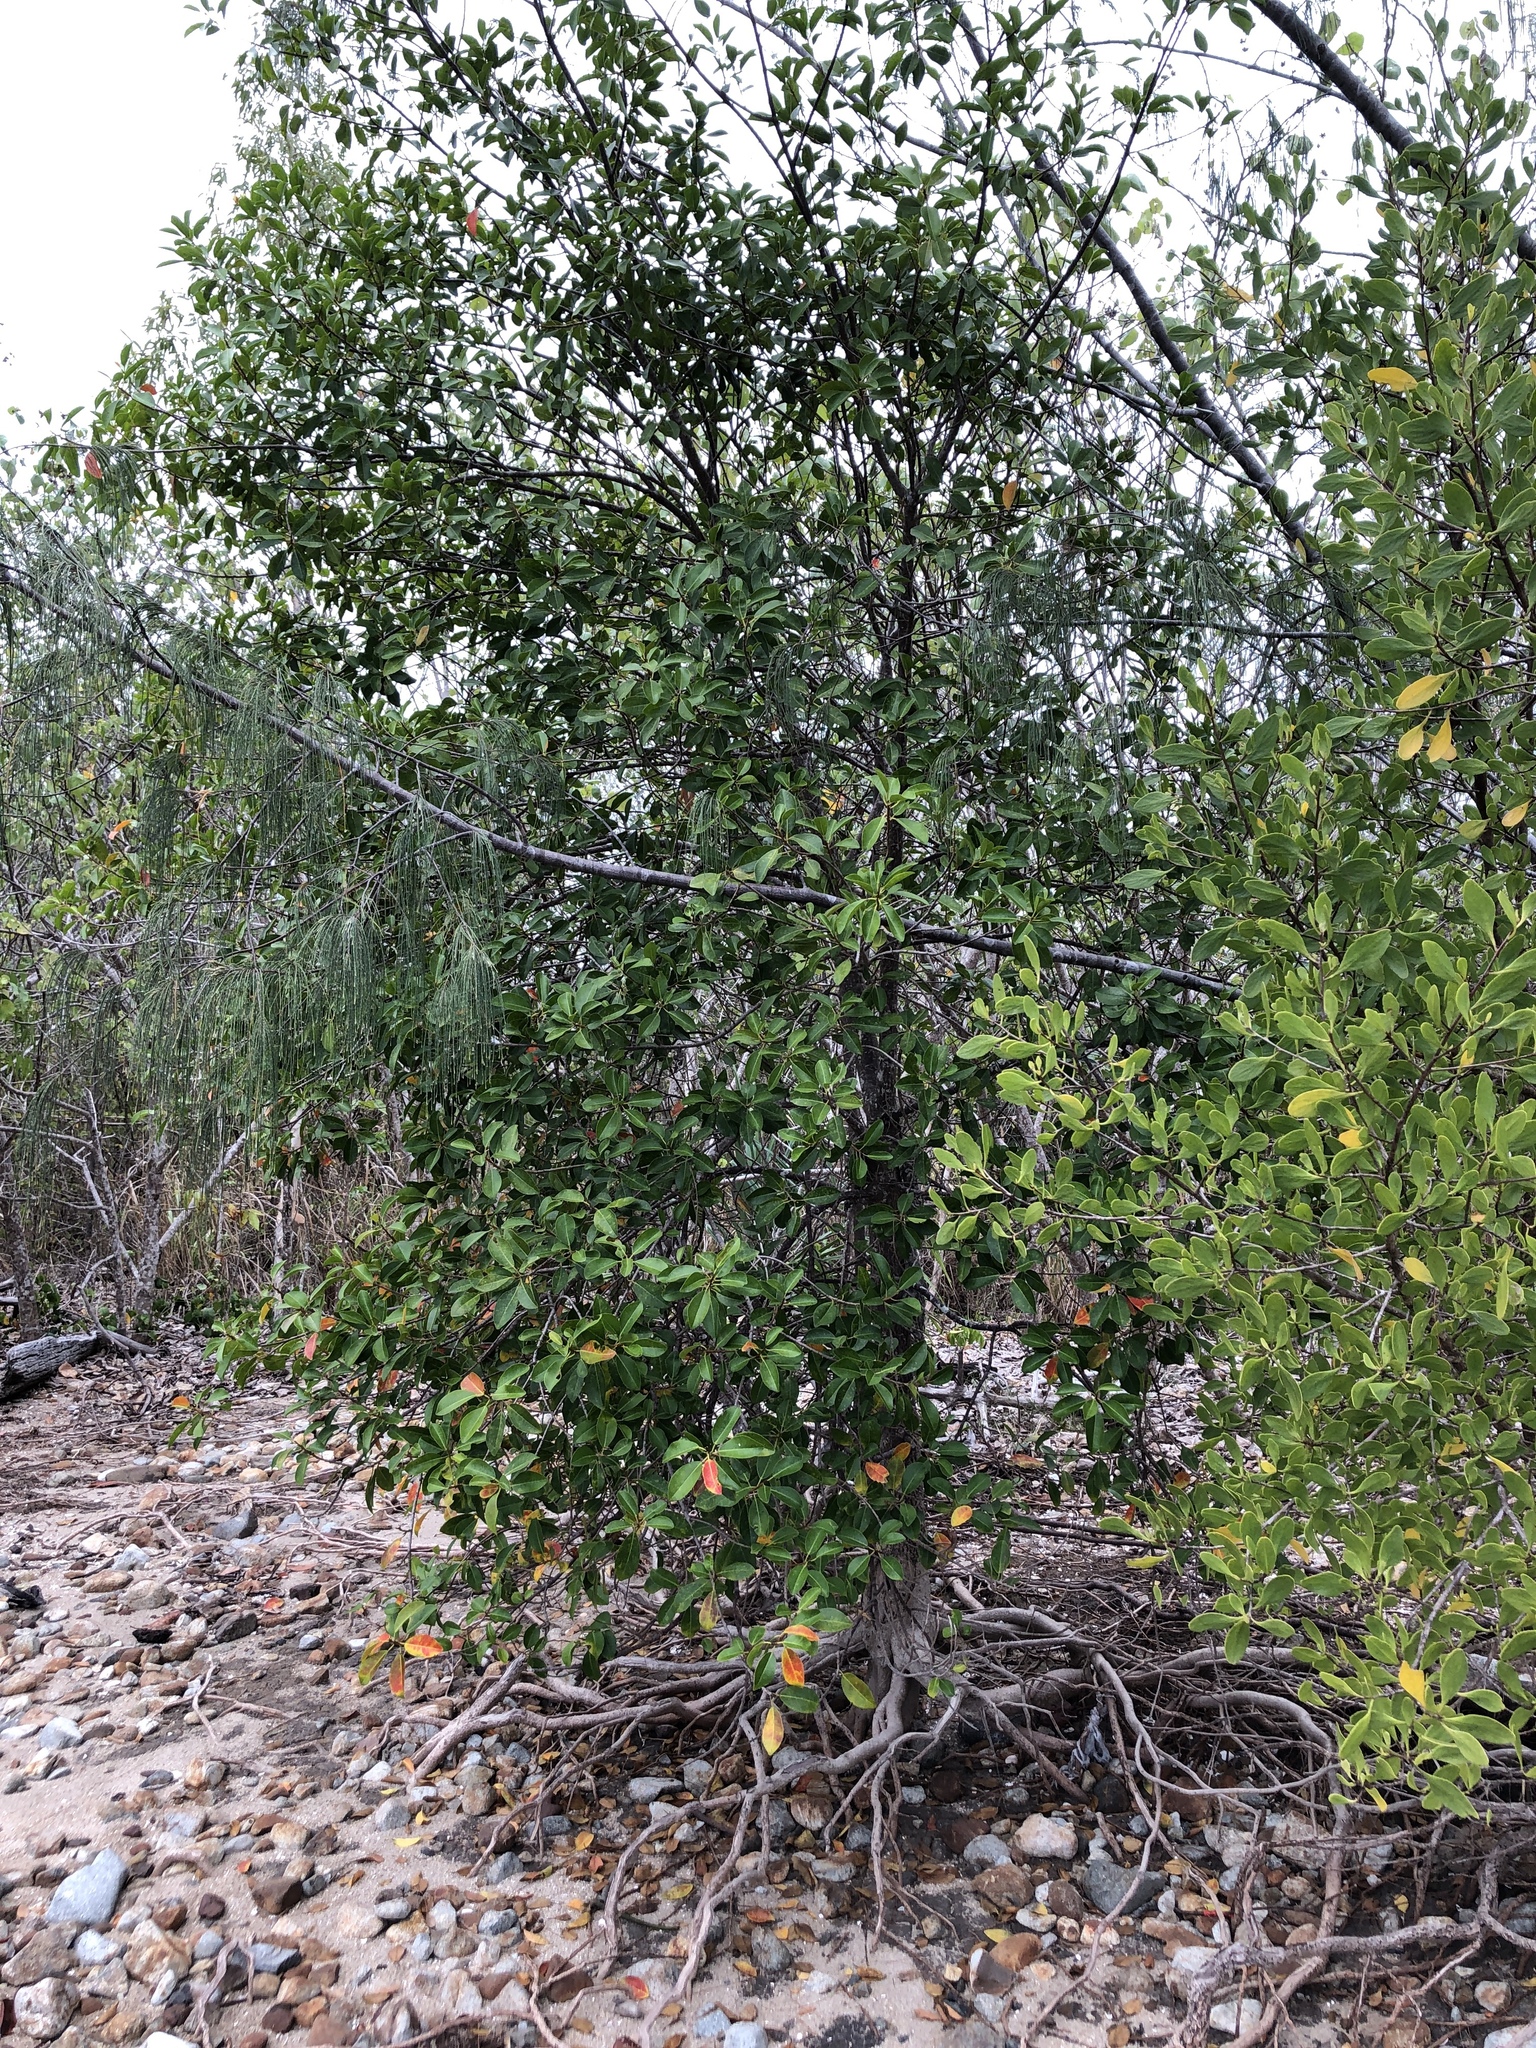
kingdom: Plantae
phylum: Tracheophyta
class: Magnoliopsida
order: Malpighiales
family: Euphorbiaceae
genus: Excoecaria
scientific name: Excoecaria agallocha
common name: River poisontree
